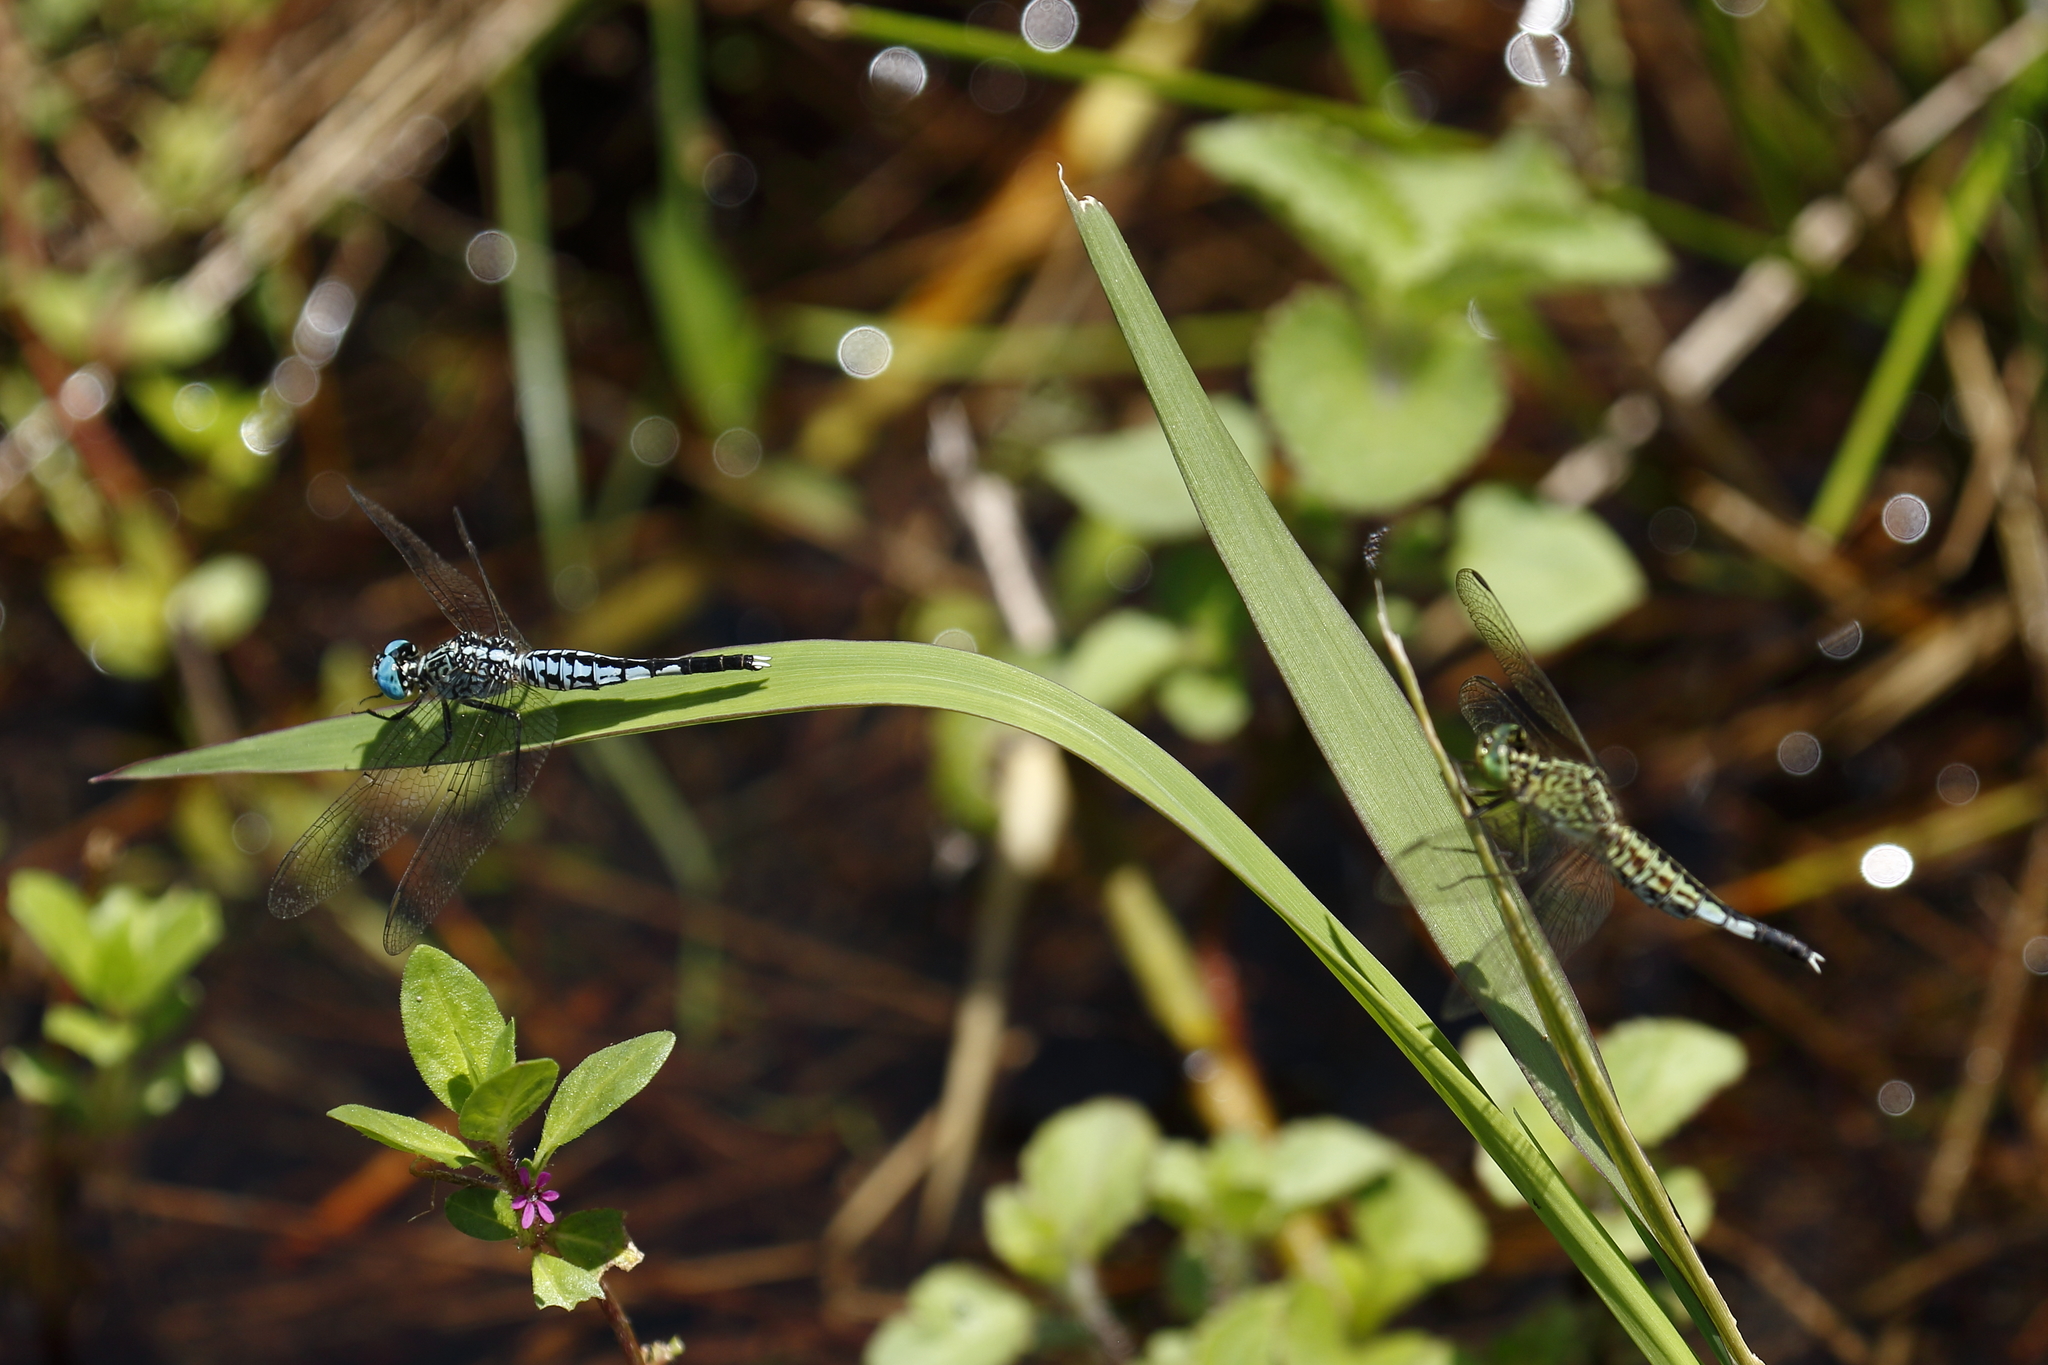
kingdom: Animalia
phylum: Arthropoda
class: Insecta
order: Odonata
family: Libellulidae
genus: Acisoma
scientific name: Acisoma panorpoides
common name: Asian pintail
